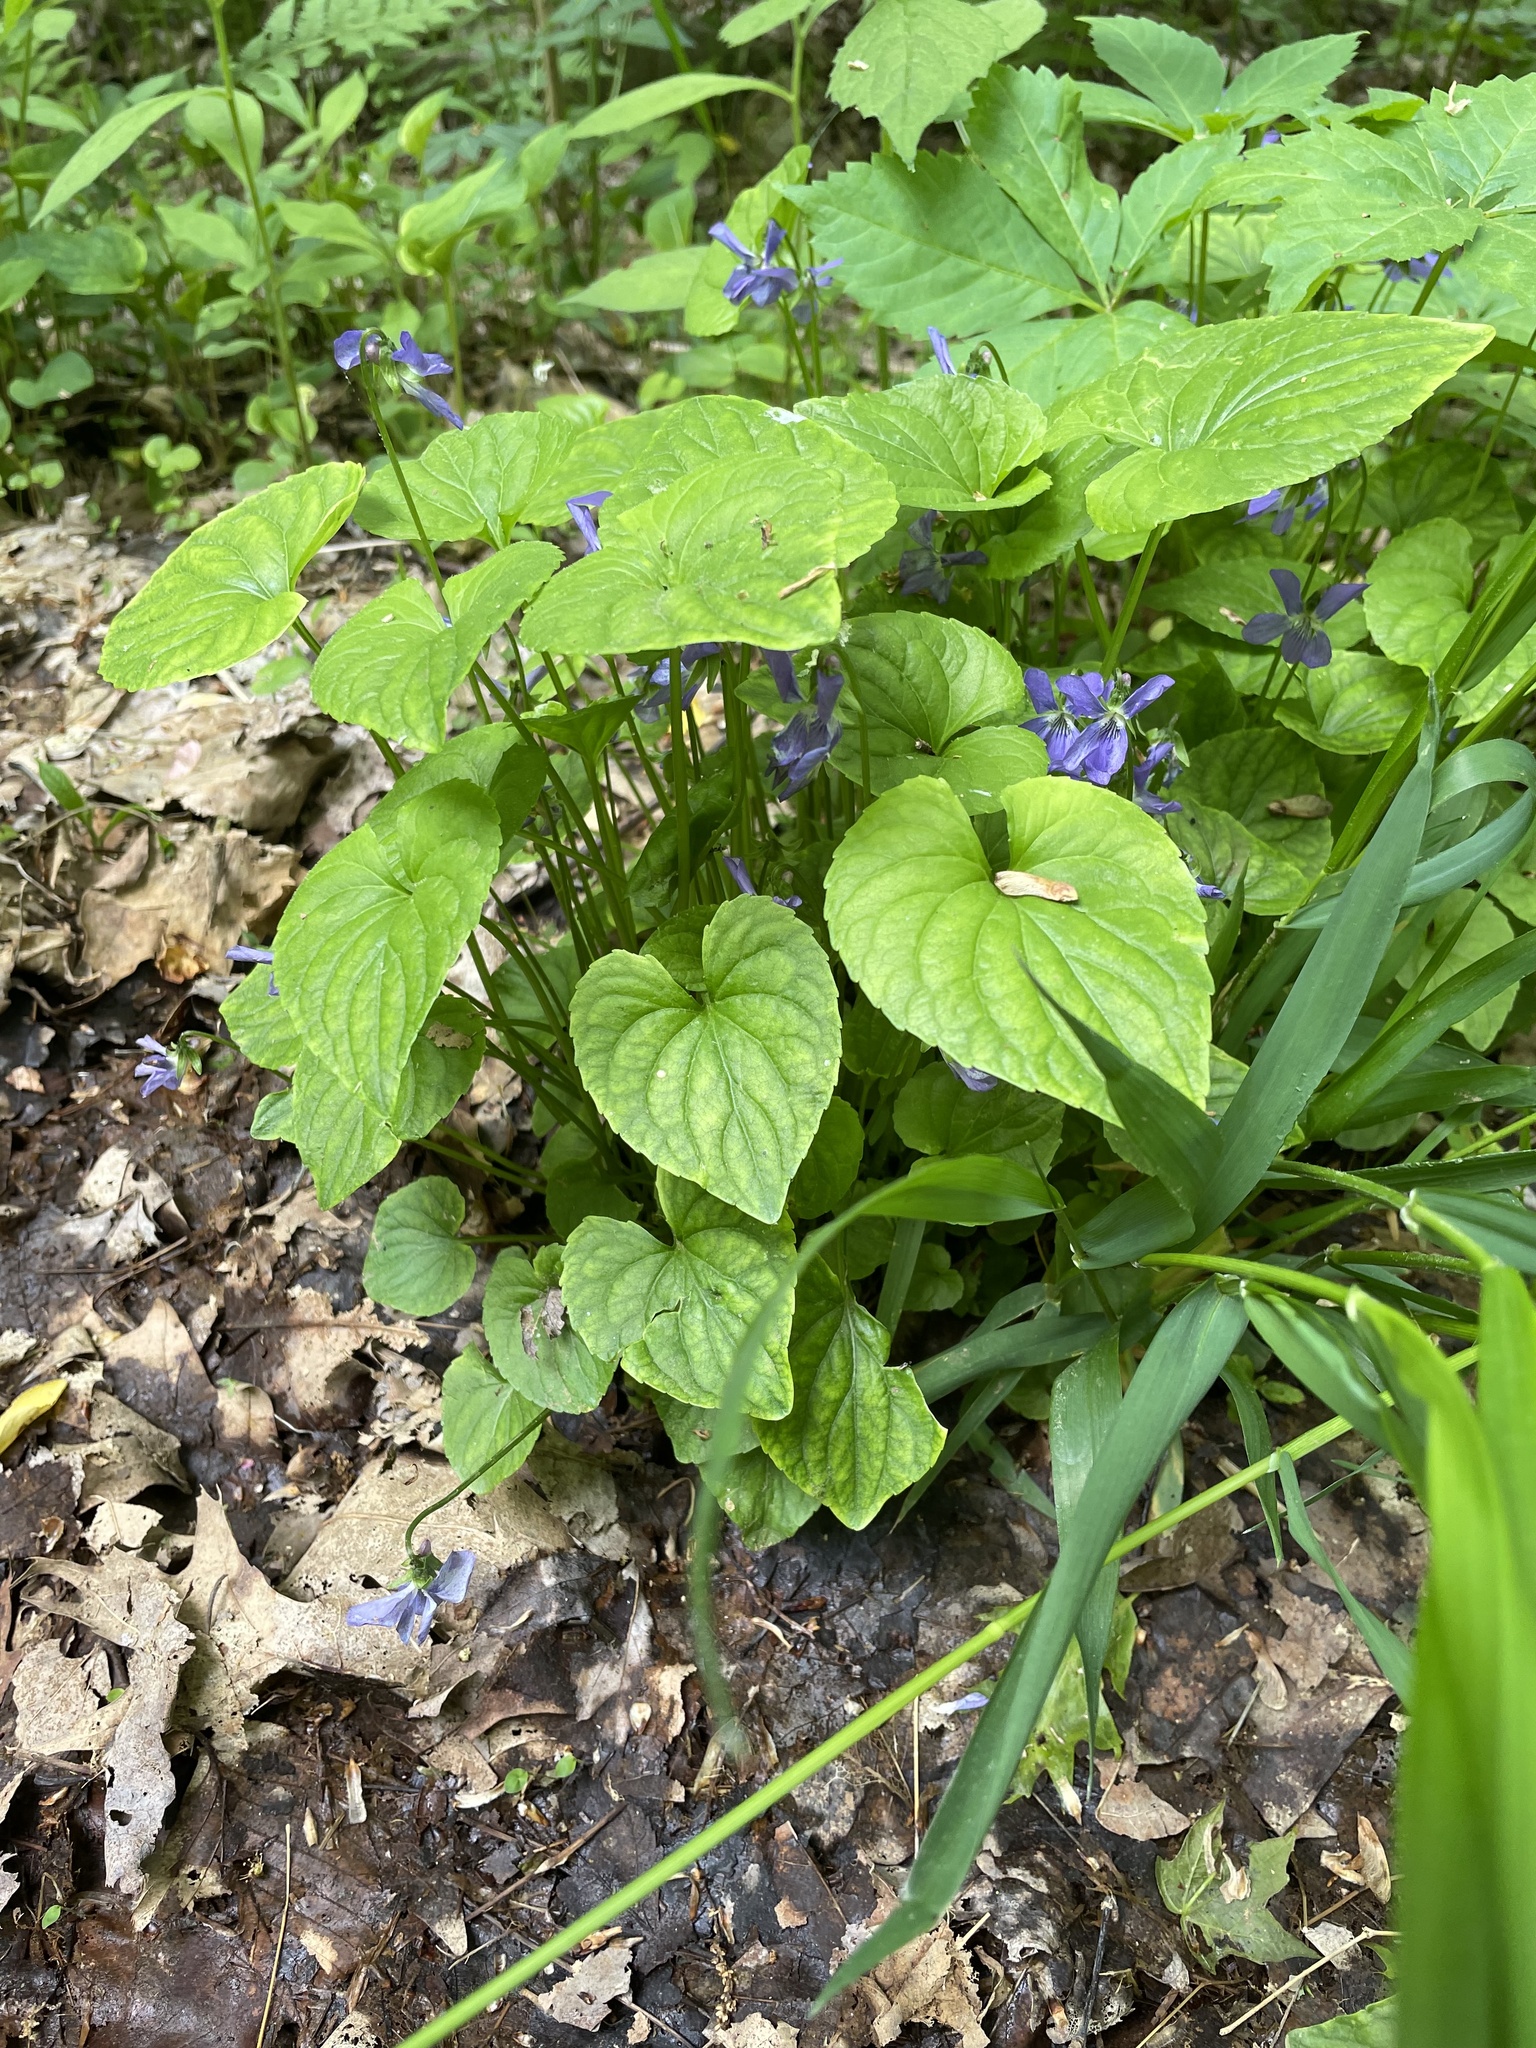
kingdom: Plantae
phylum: Tracheophyta
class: Magnoliopsida
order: Malpighiales
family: Violaceae
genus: Viola
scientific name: Viola cucullata
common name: Marsh blue violet
